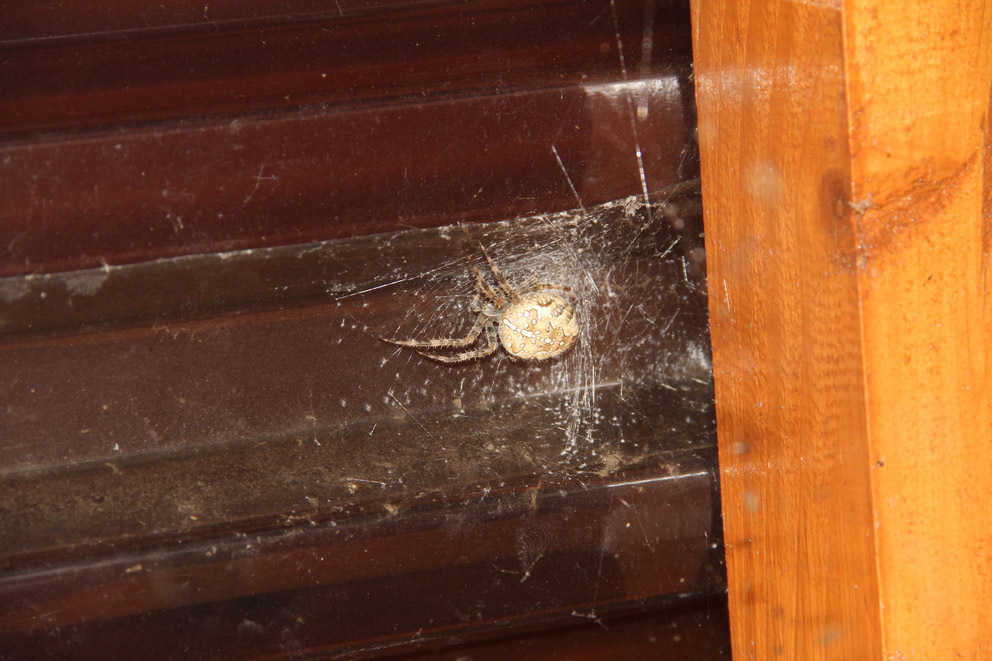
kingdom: Animalia
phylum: Arthropoda
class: Arachnida
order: Araneae
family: Araneidae
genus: Araneus
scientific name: Araneus diadematus
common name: Cross orbweaver
